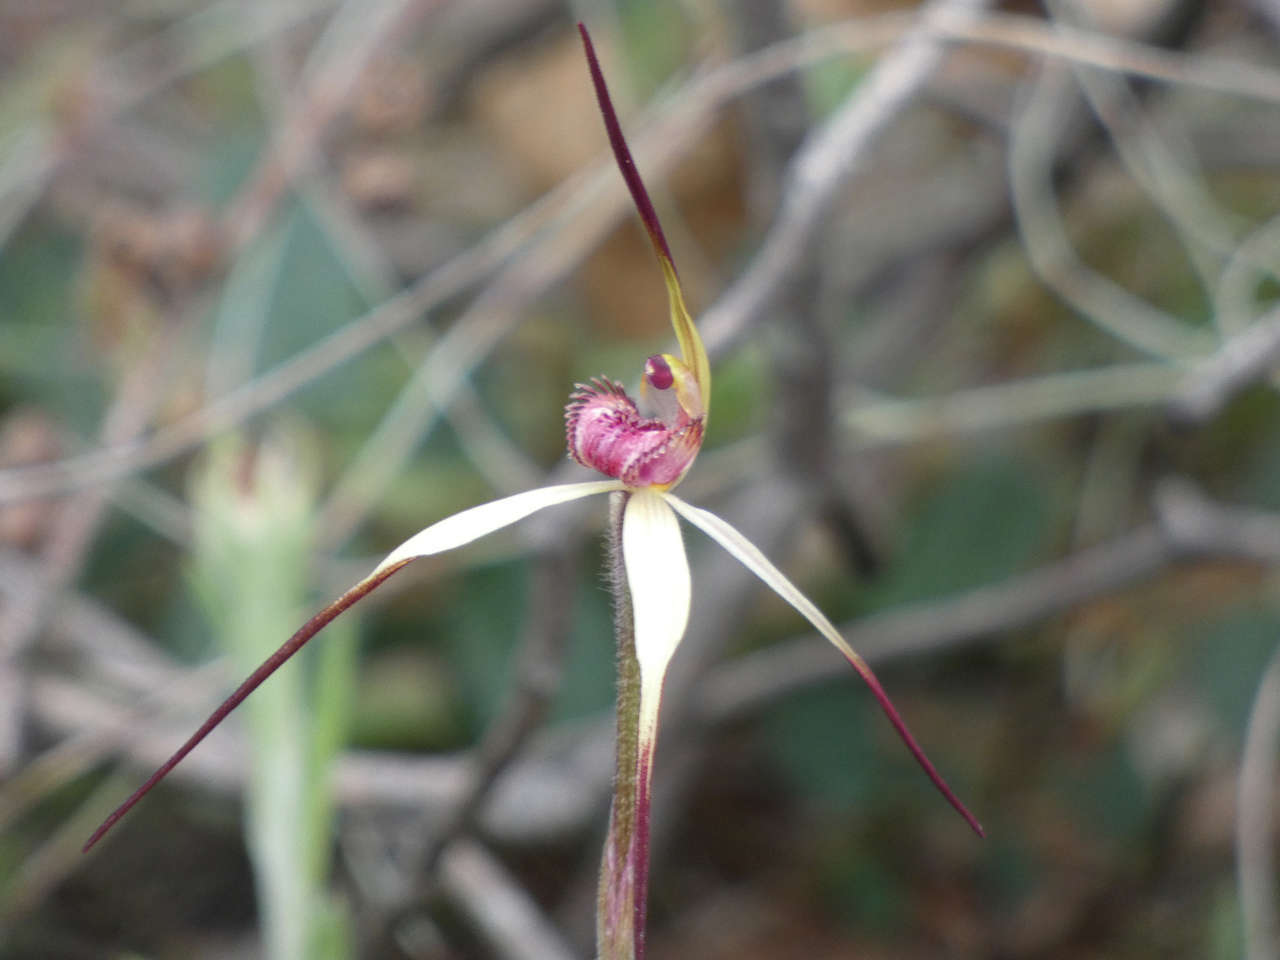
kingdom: Plantae
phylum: Tracheophyta
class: Liliopsida
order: Asparagales
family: Orchidaceae
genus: Caladenia
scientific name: Caladenia grampiana
